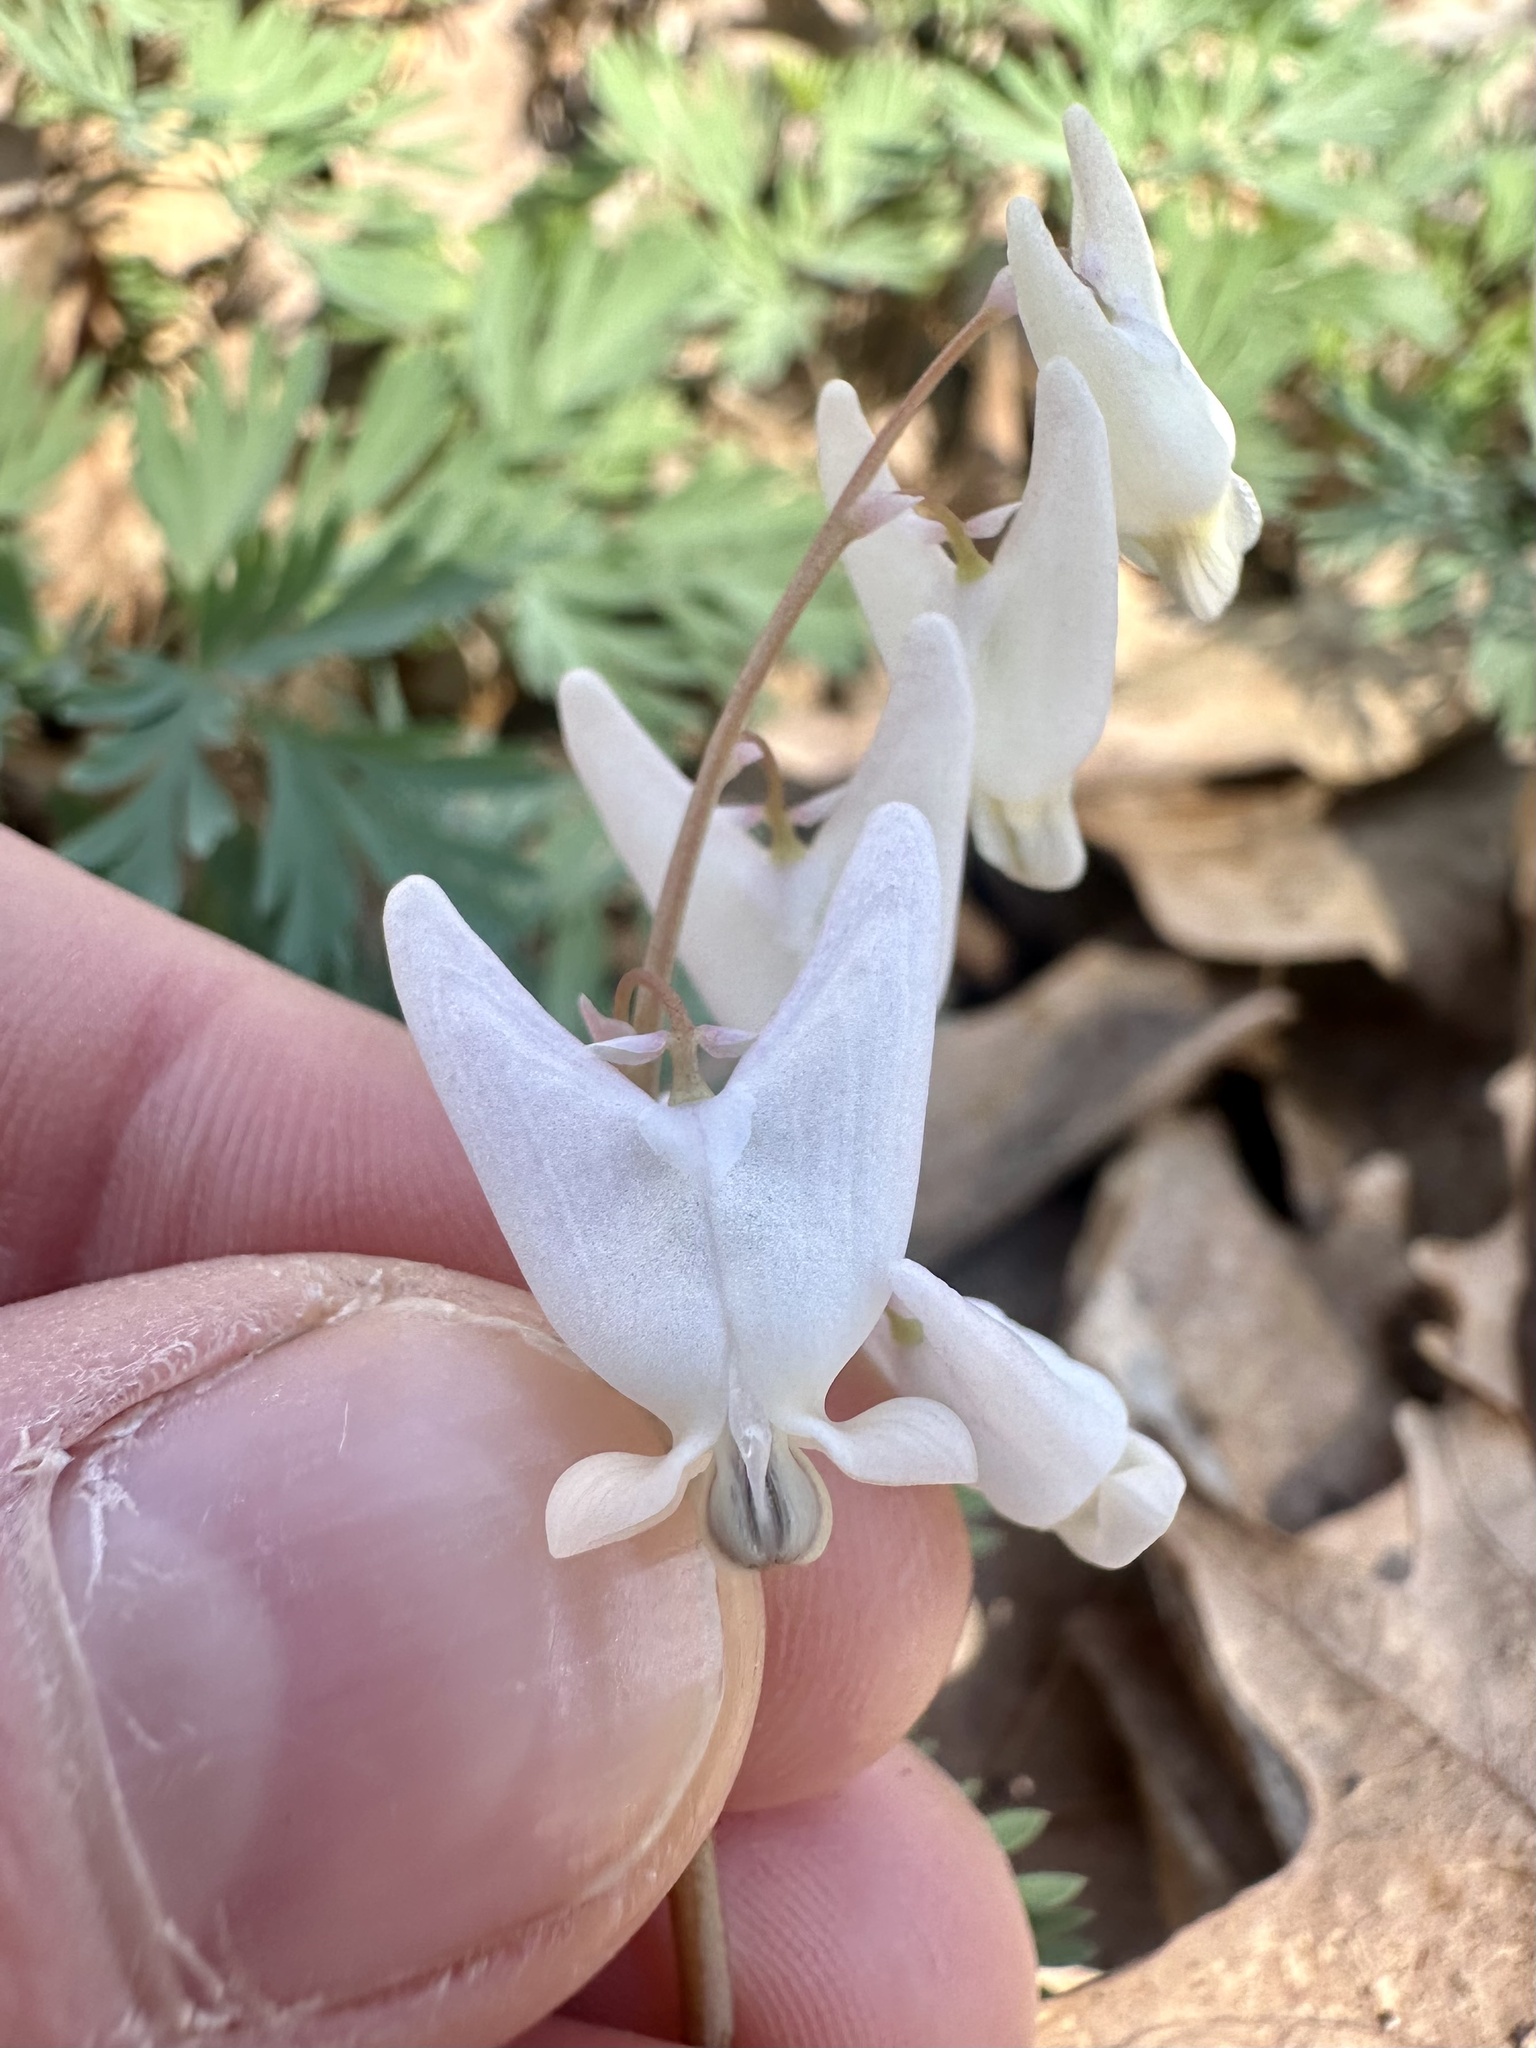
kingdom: Plantae
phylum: Tracheophyta
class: Magnoliopsida
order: Ranunculales
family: Papaveraceae
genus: Dicentra
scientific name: Dicentra cucullaria
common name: Dutchman's breeches
